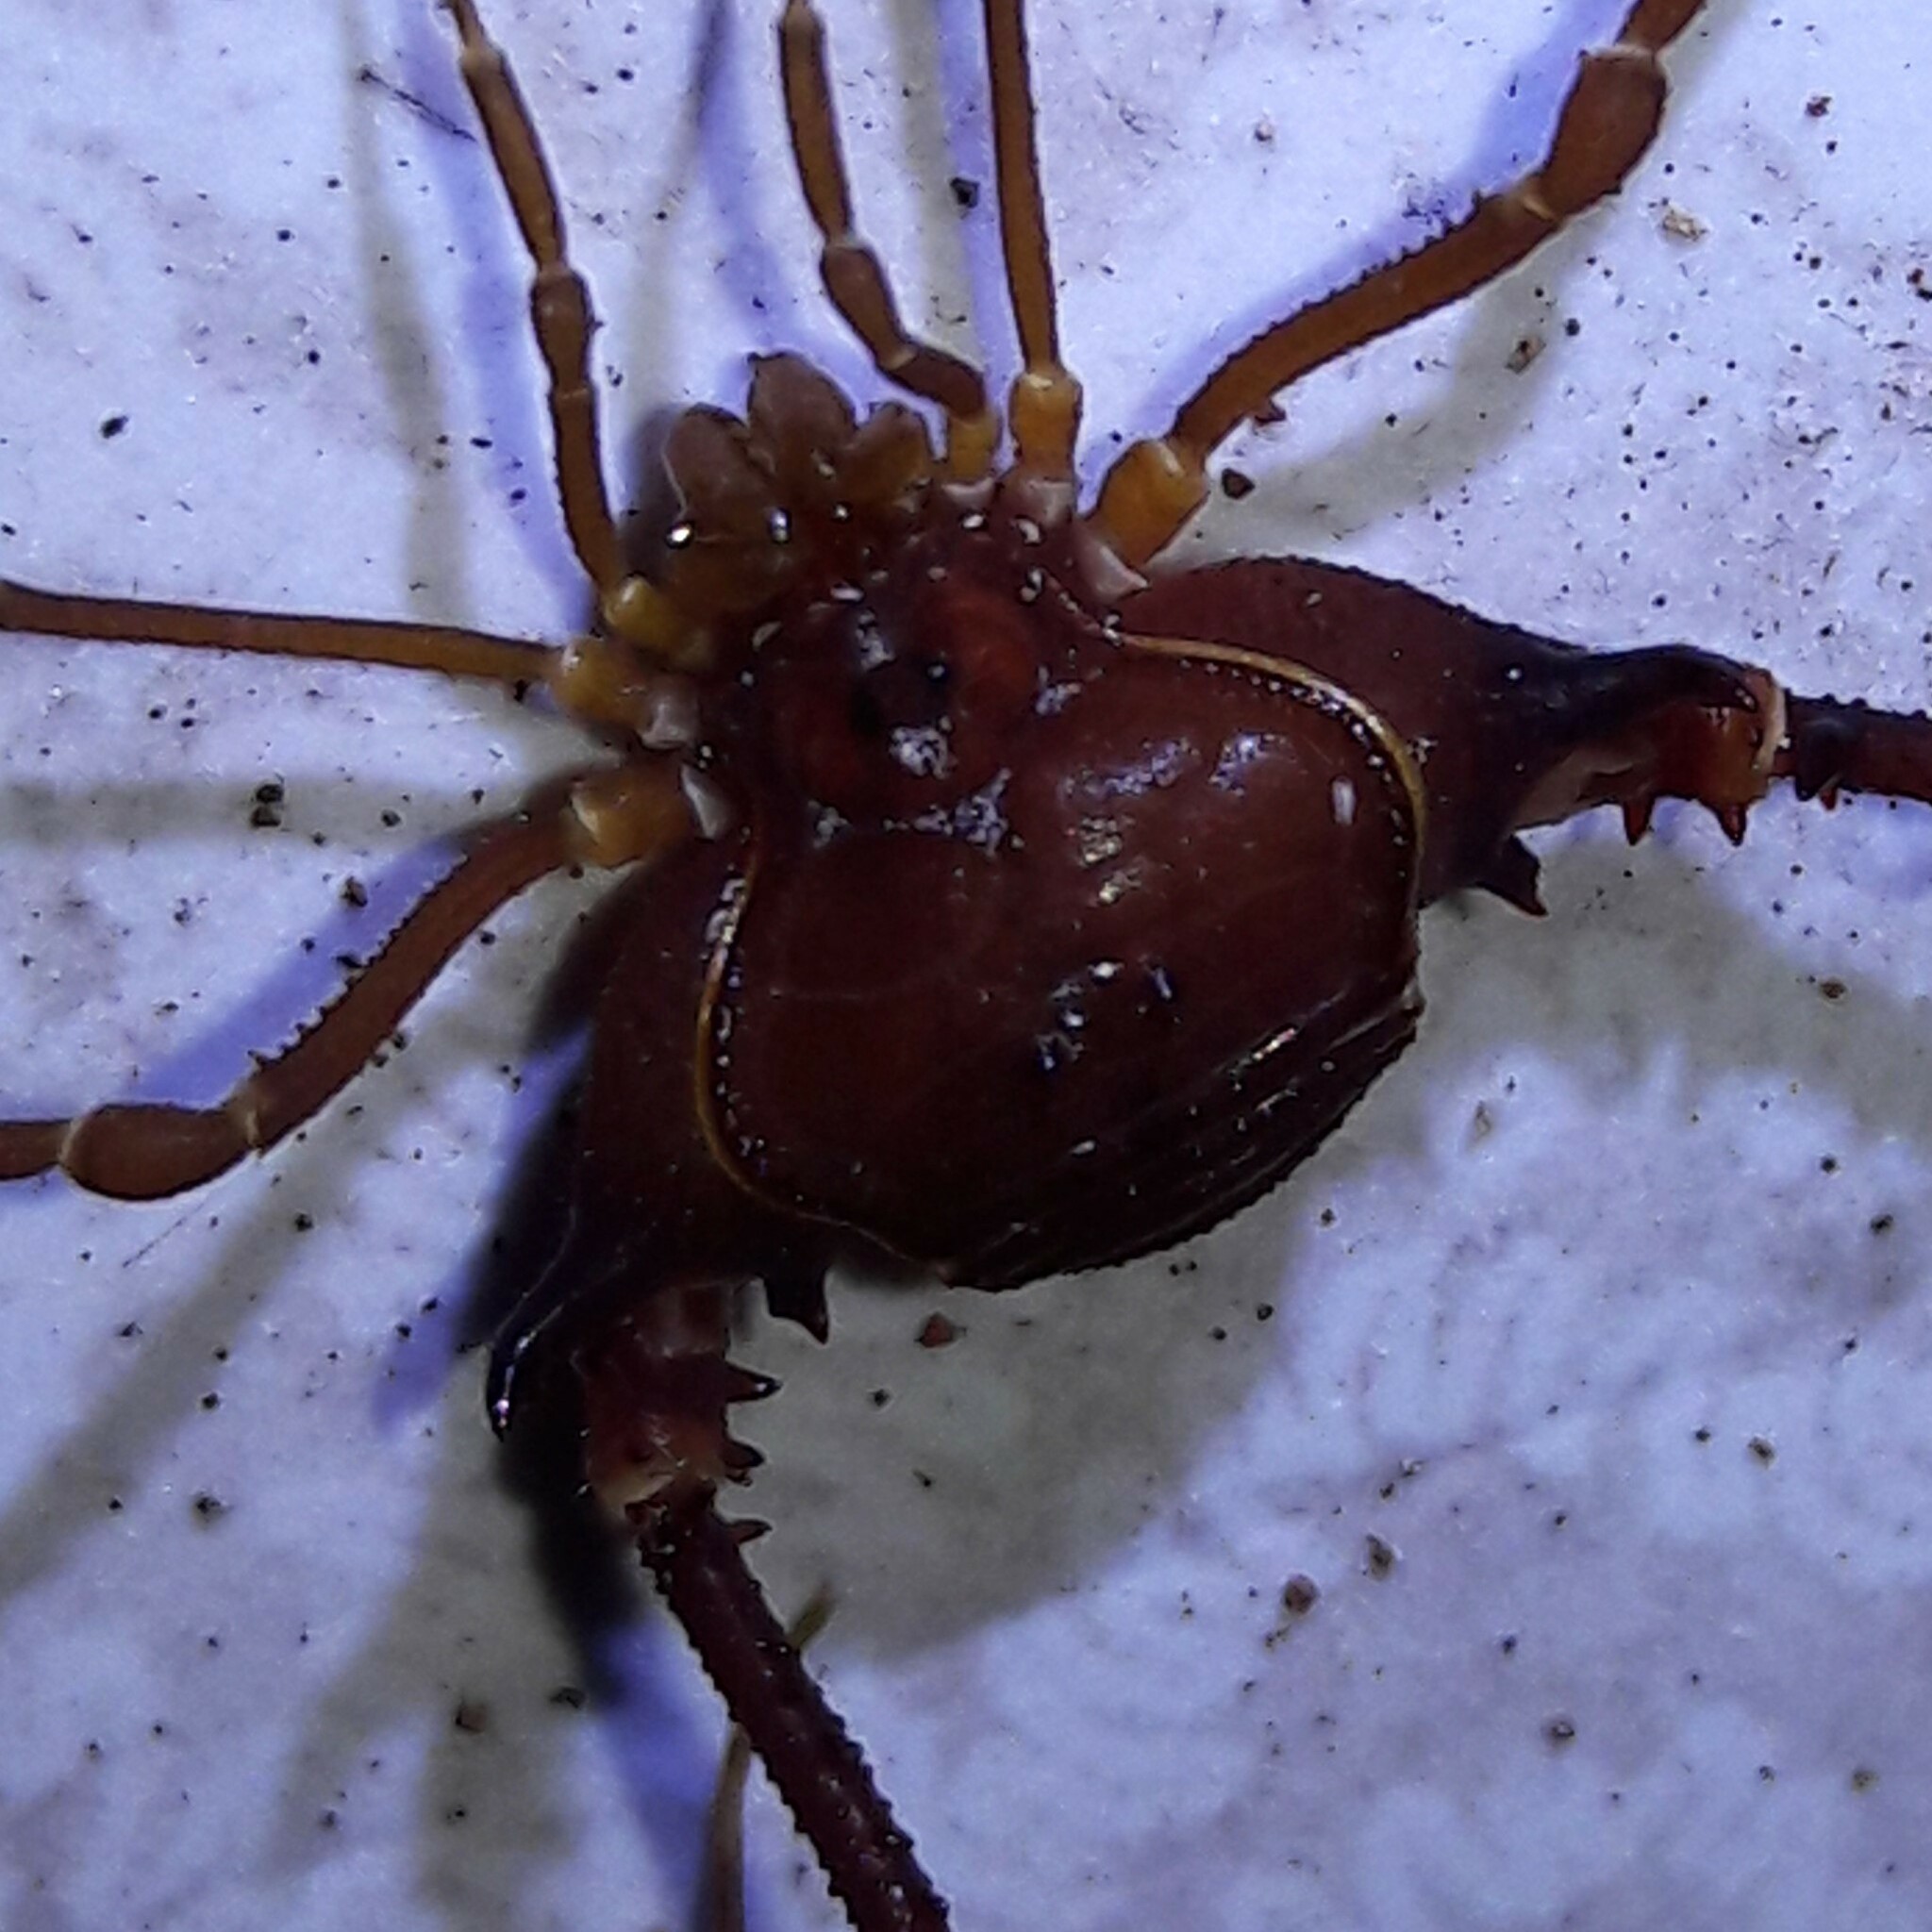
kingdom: Animalia
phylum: Arthropoda
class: Arachnida
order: Opiliones
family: Gonyleptidae
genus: Krateromaspis
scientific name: Krateromaspis dilatata
